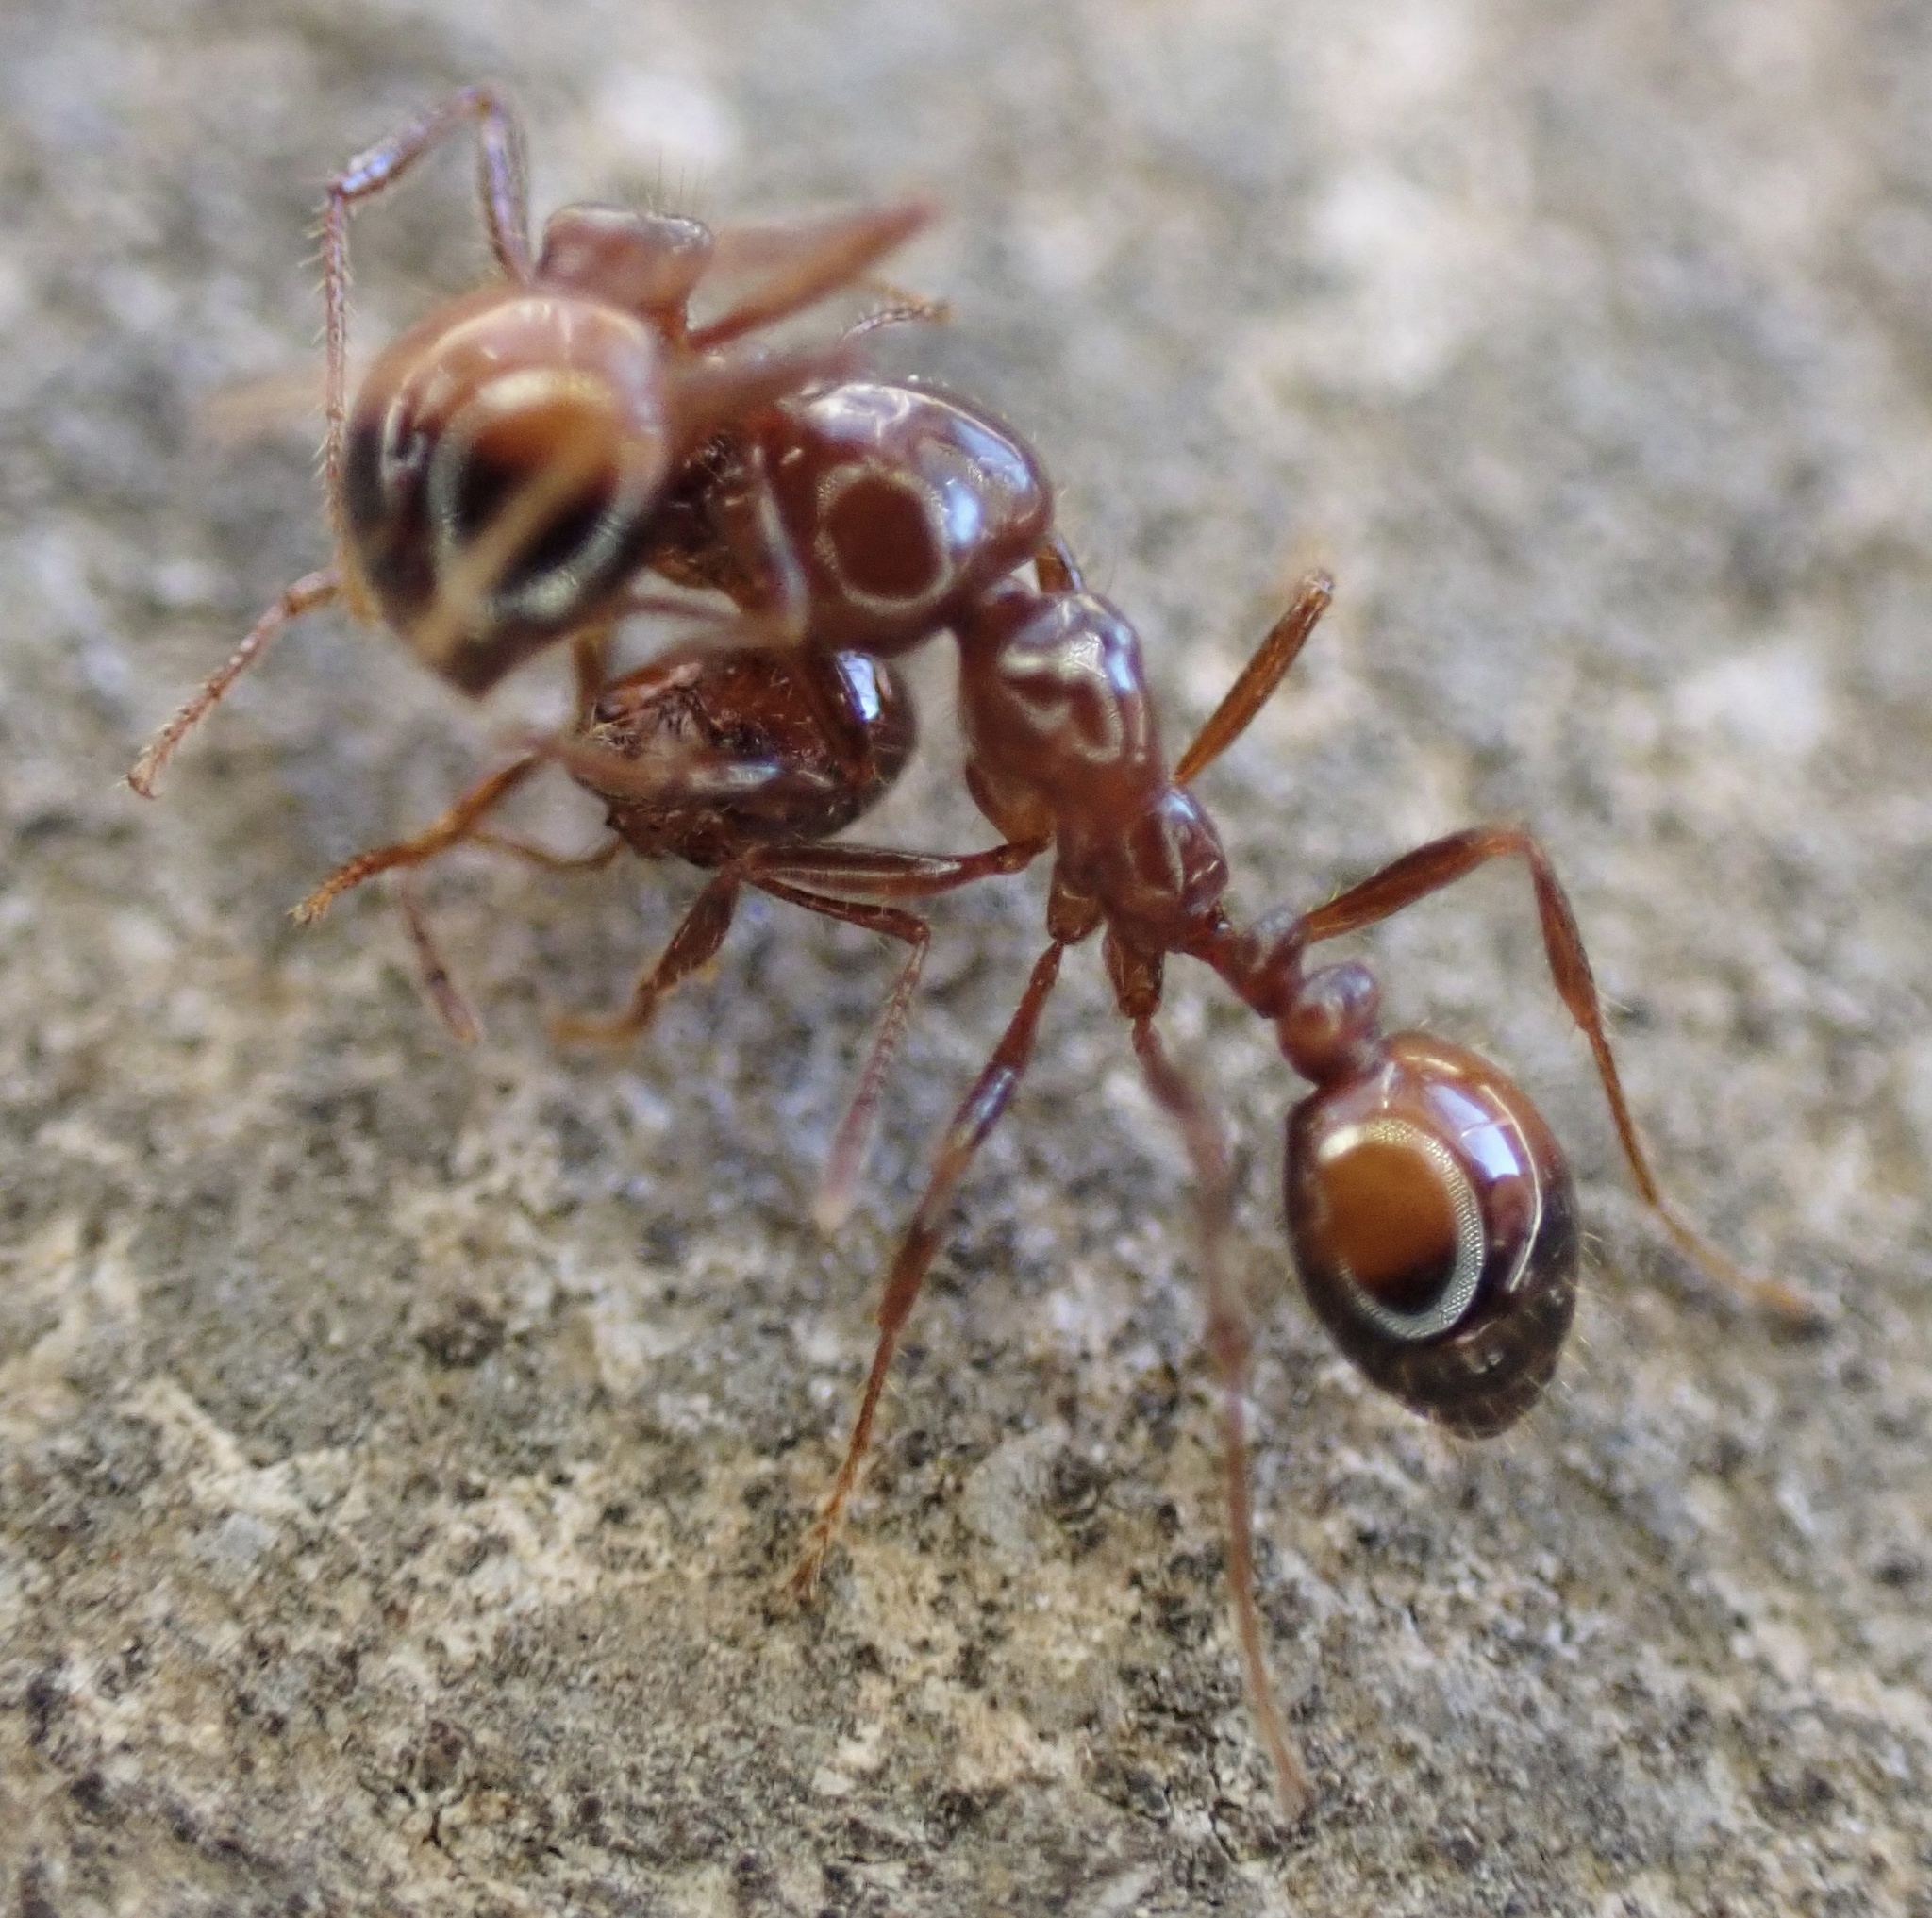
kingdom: Animalia
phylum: Arthropoda
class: Insecta
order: Hymenoptera
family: Formicidae
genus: Solenopsis
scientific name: Solenopsis
